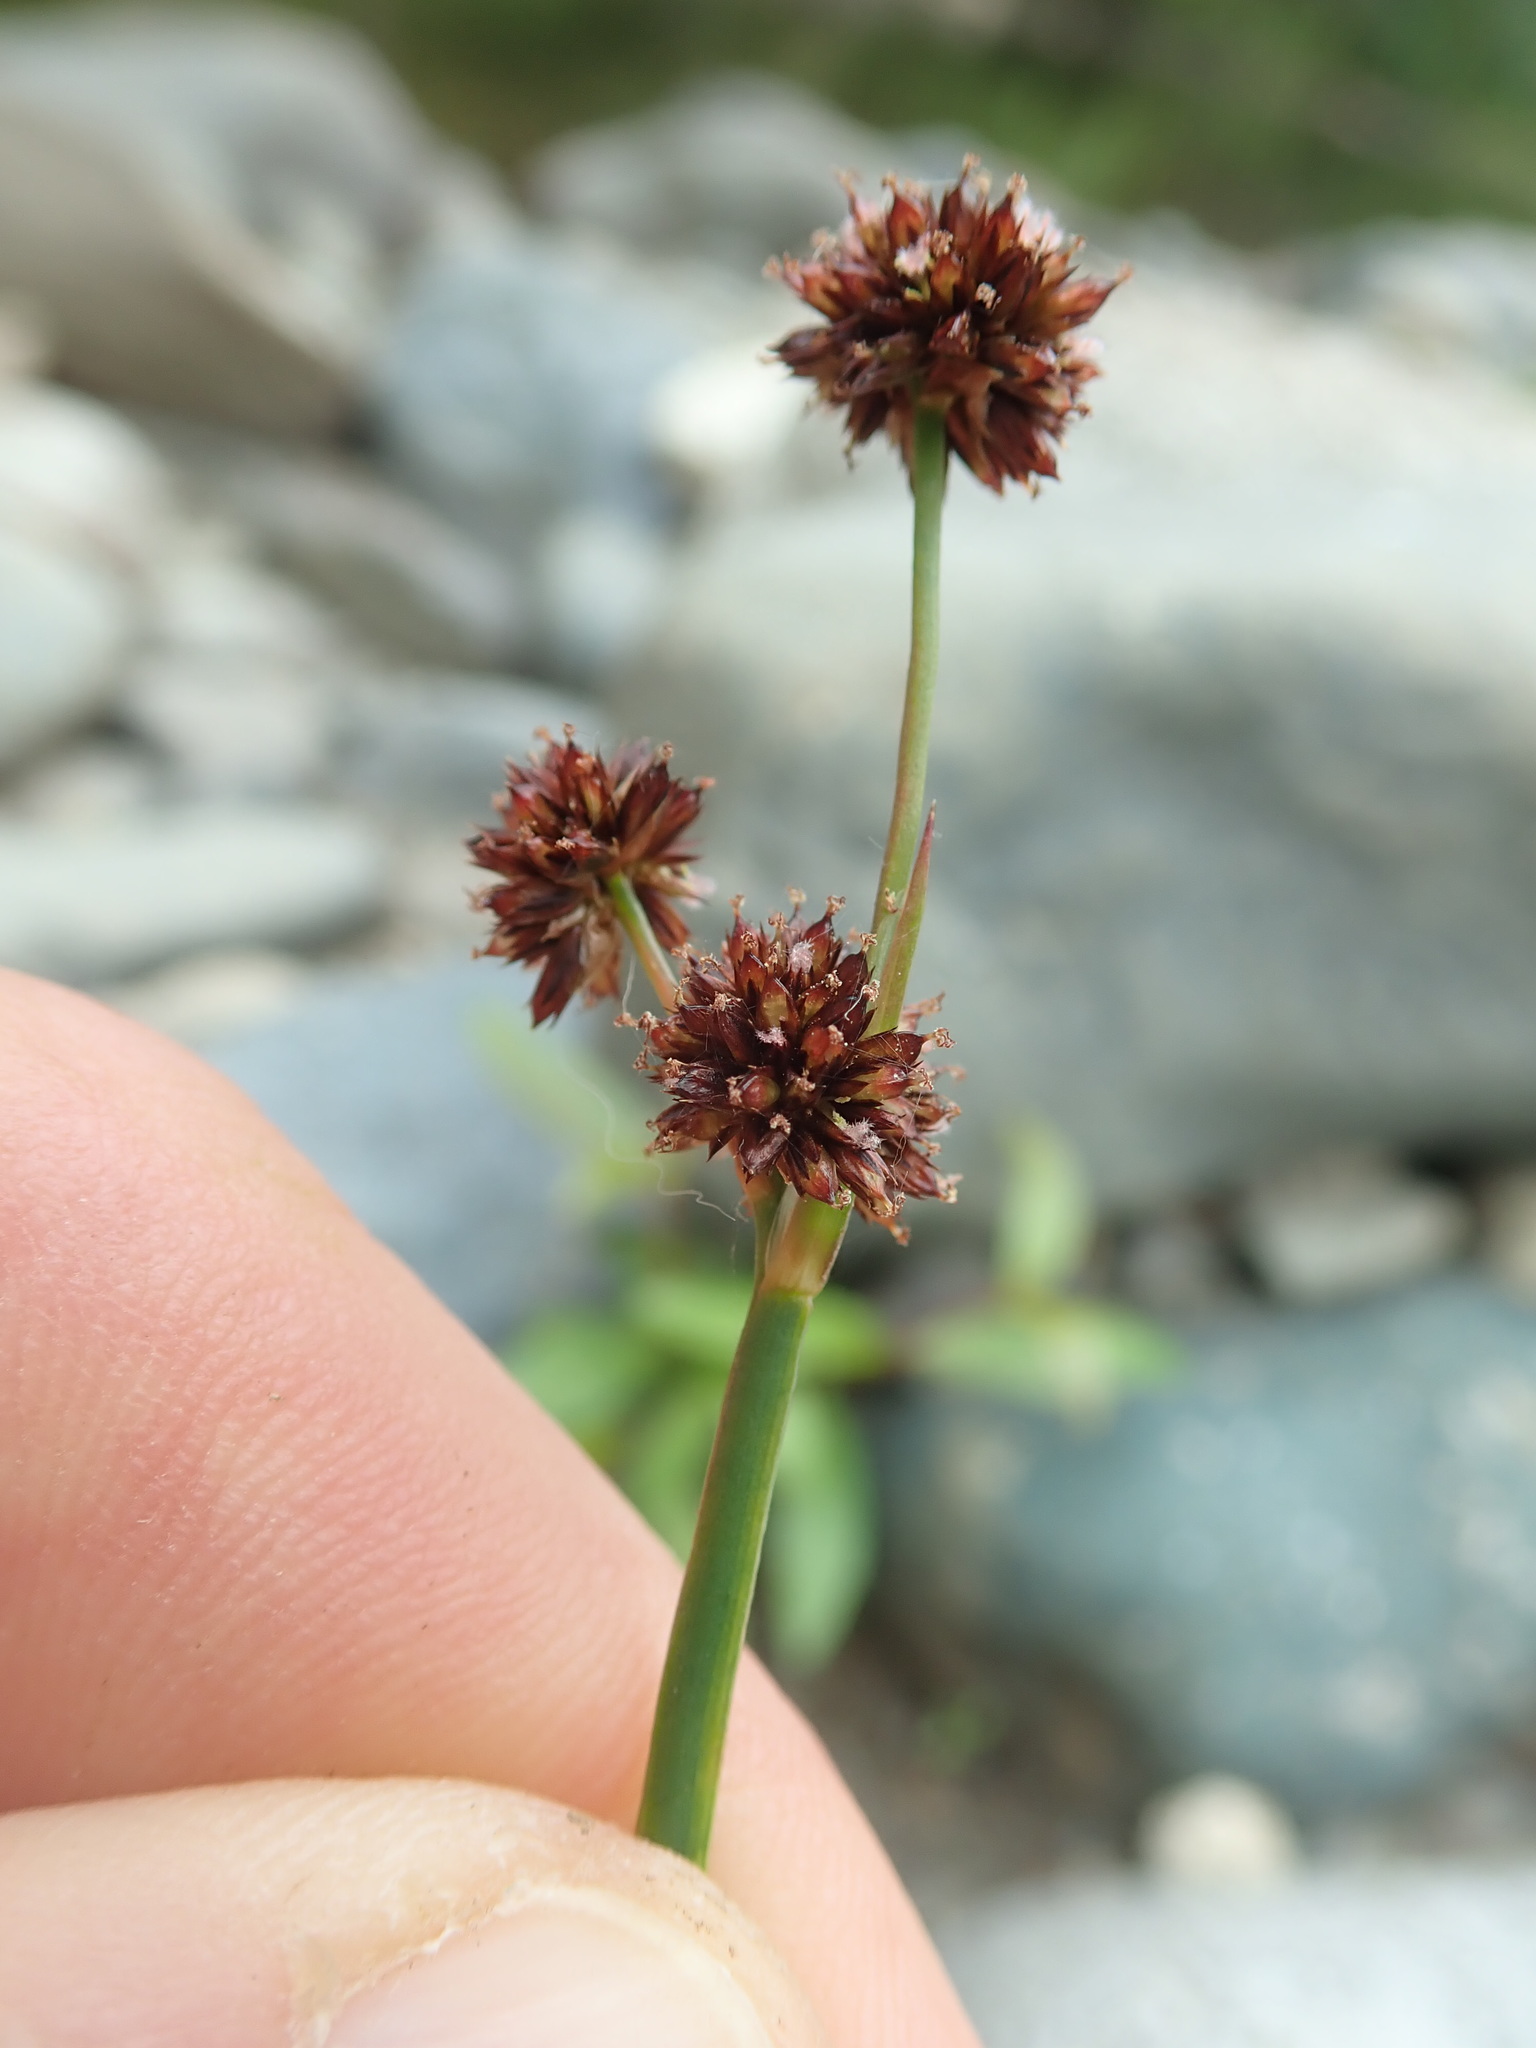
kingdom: Plantae
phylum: Tracheophyta
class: Liliopsida
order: Poales
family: Juncaceae
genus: Juncus
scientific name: Juncus ensifolius
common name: Sword-leaved rush
